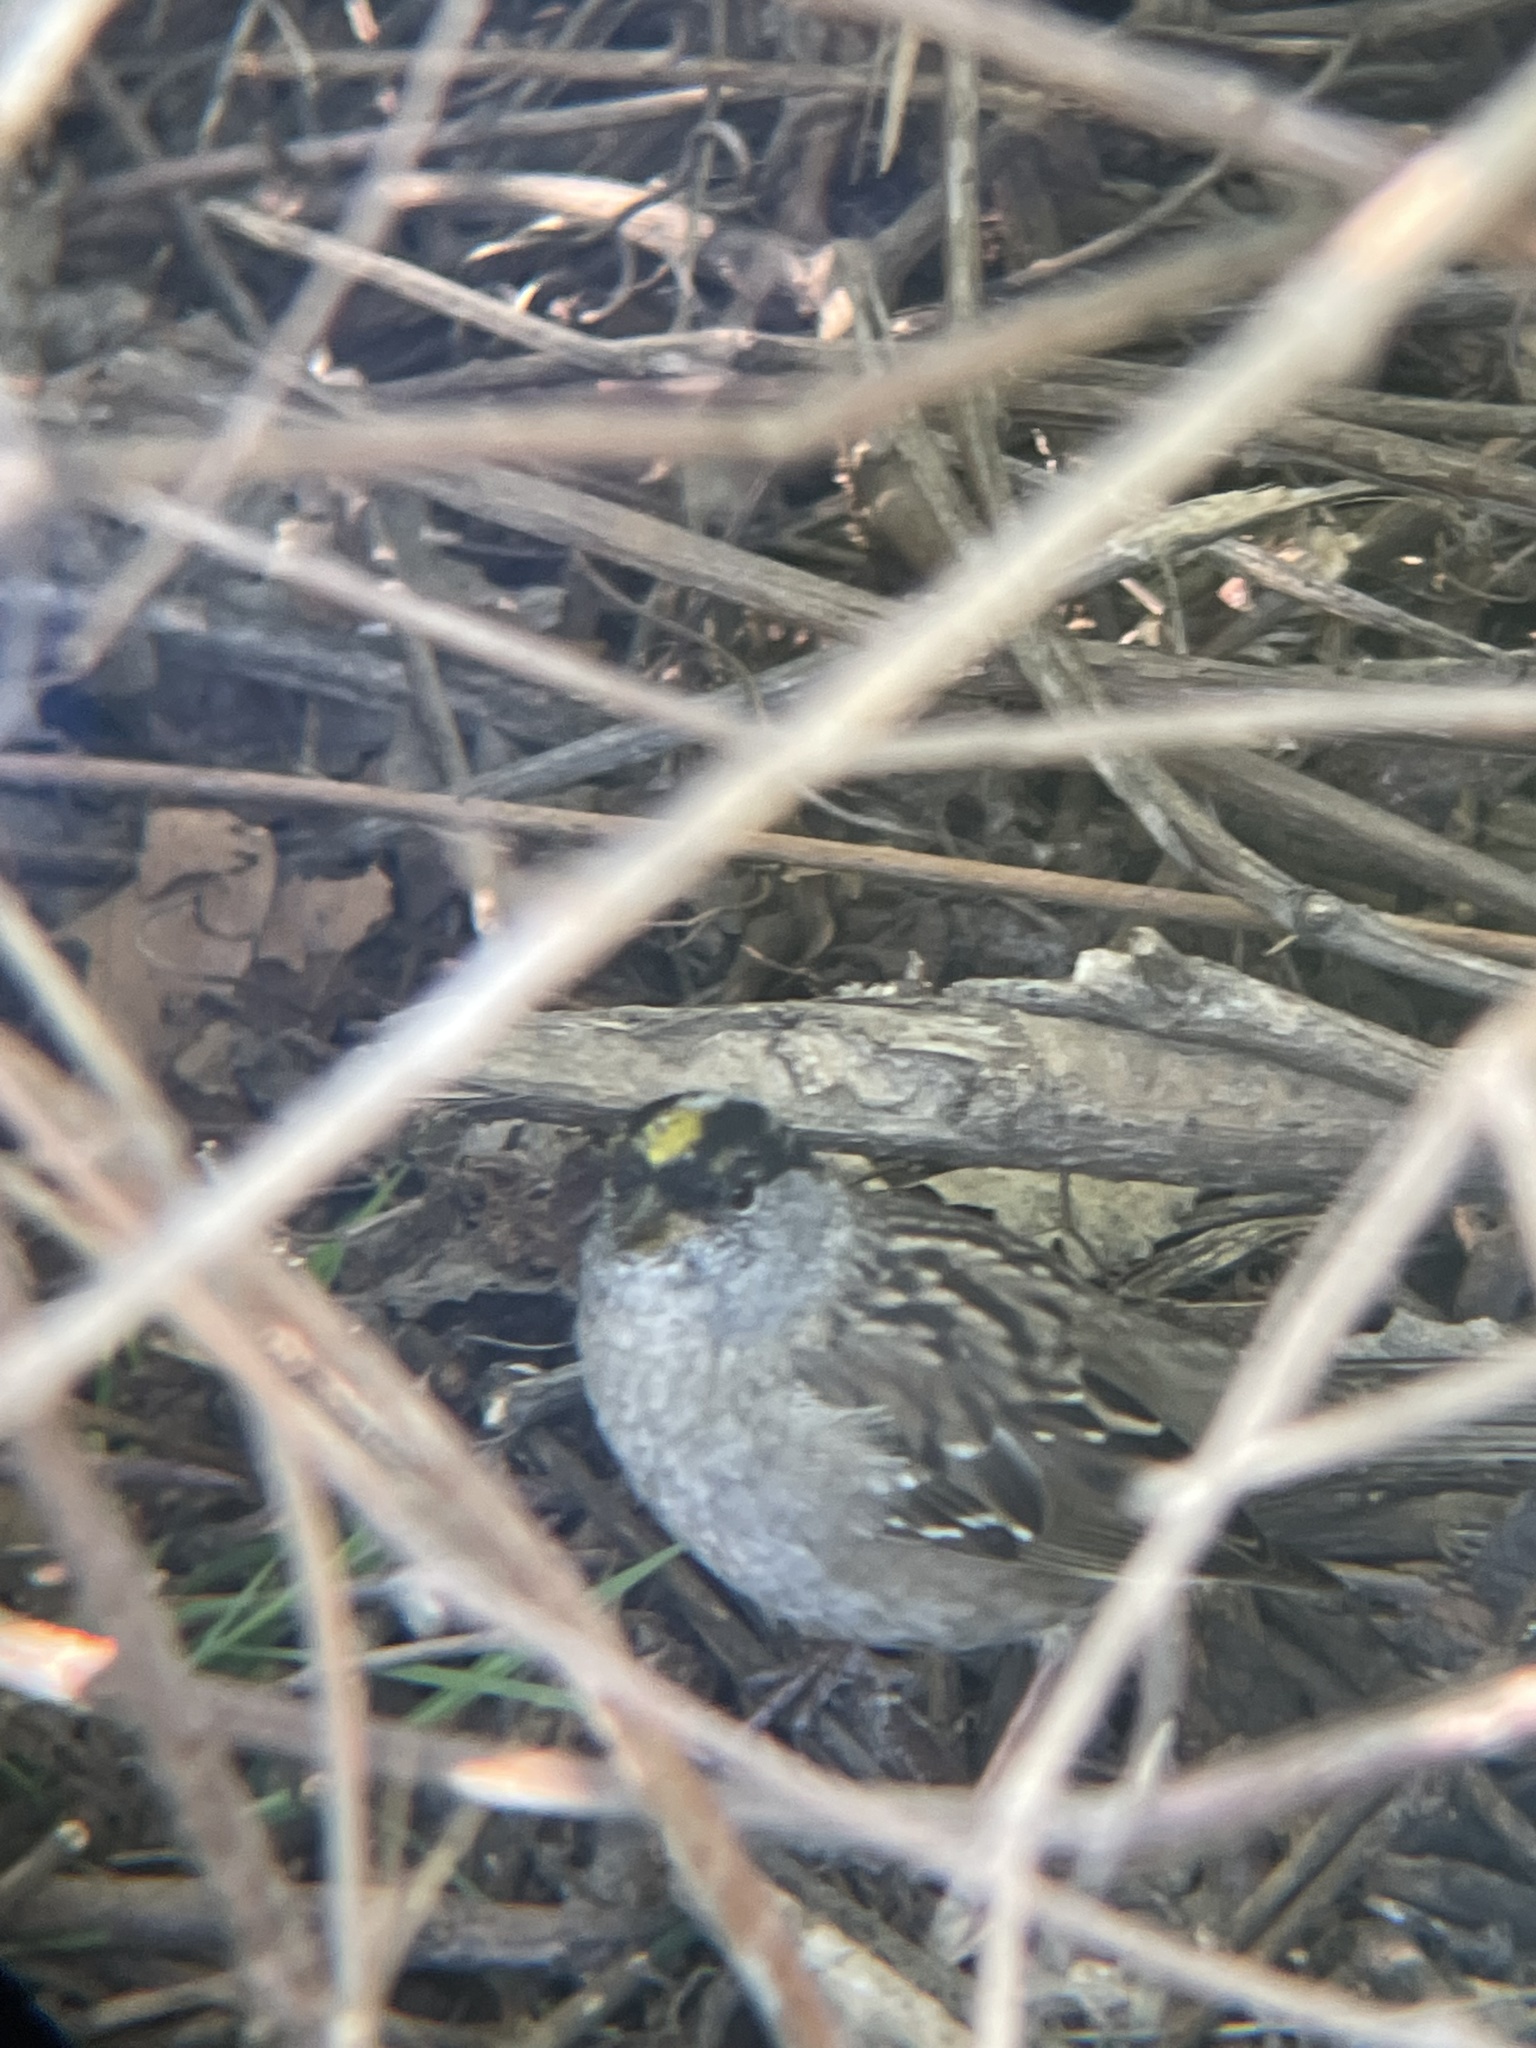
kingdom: Animalia
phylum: Chordata
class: Aves
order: Passeriformes
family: Passerellidae
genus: Zonotrichia
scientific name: Zonotrichia atricapilla
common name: Golden-crowned sparrow
